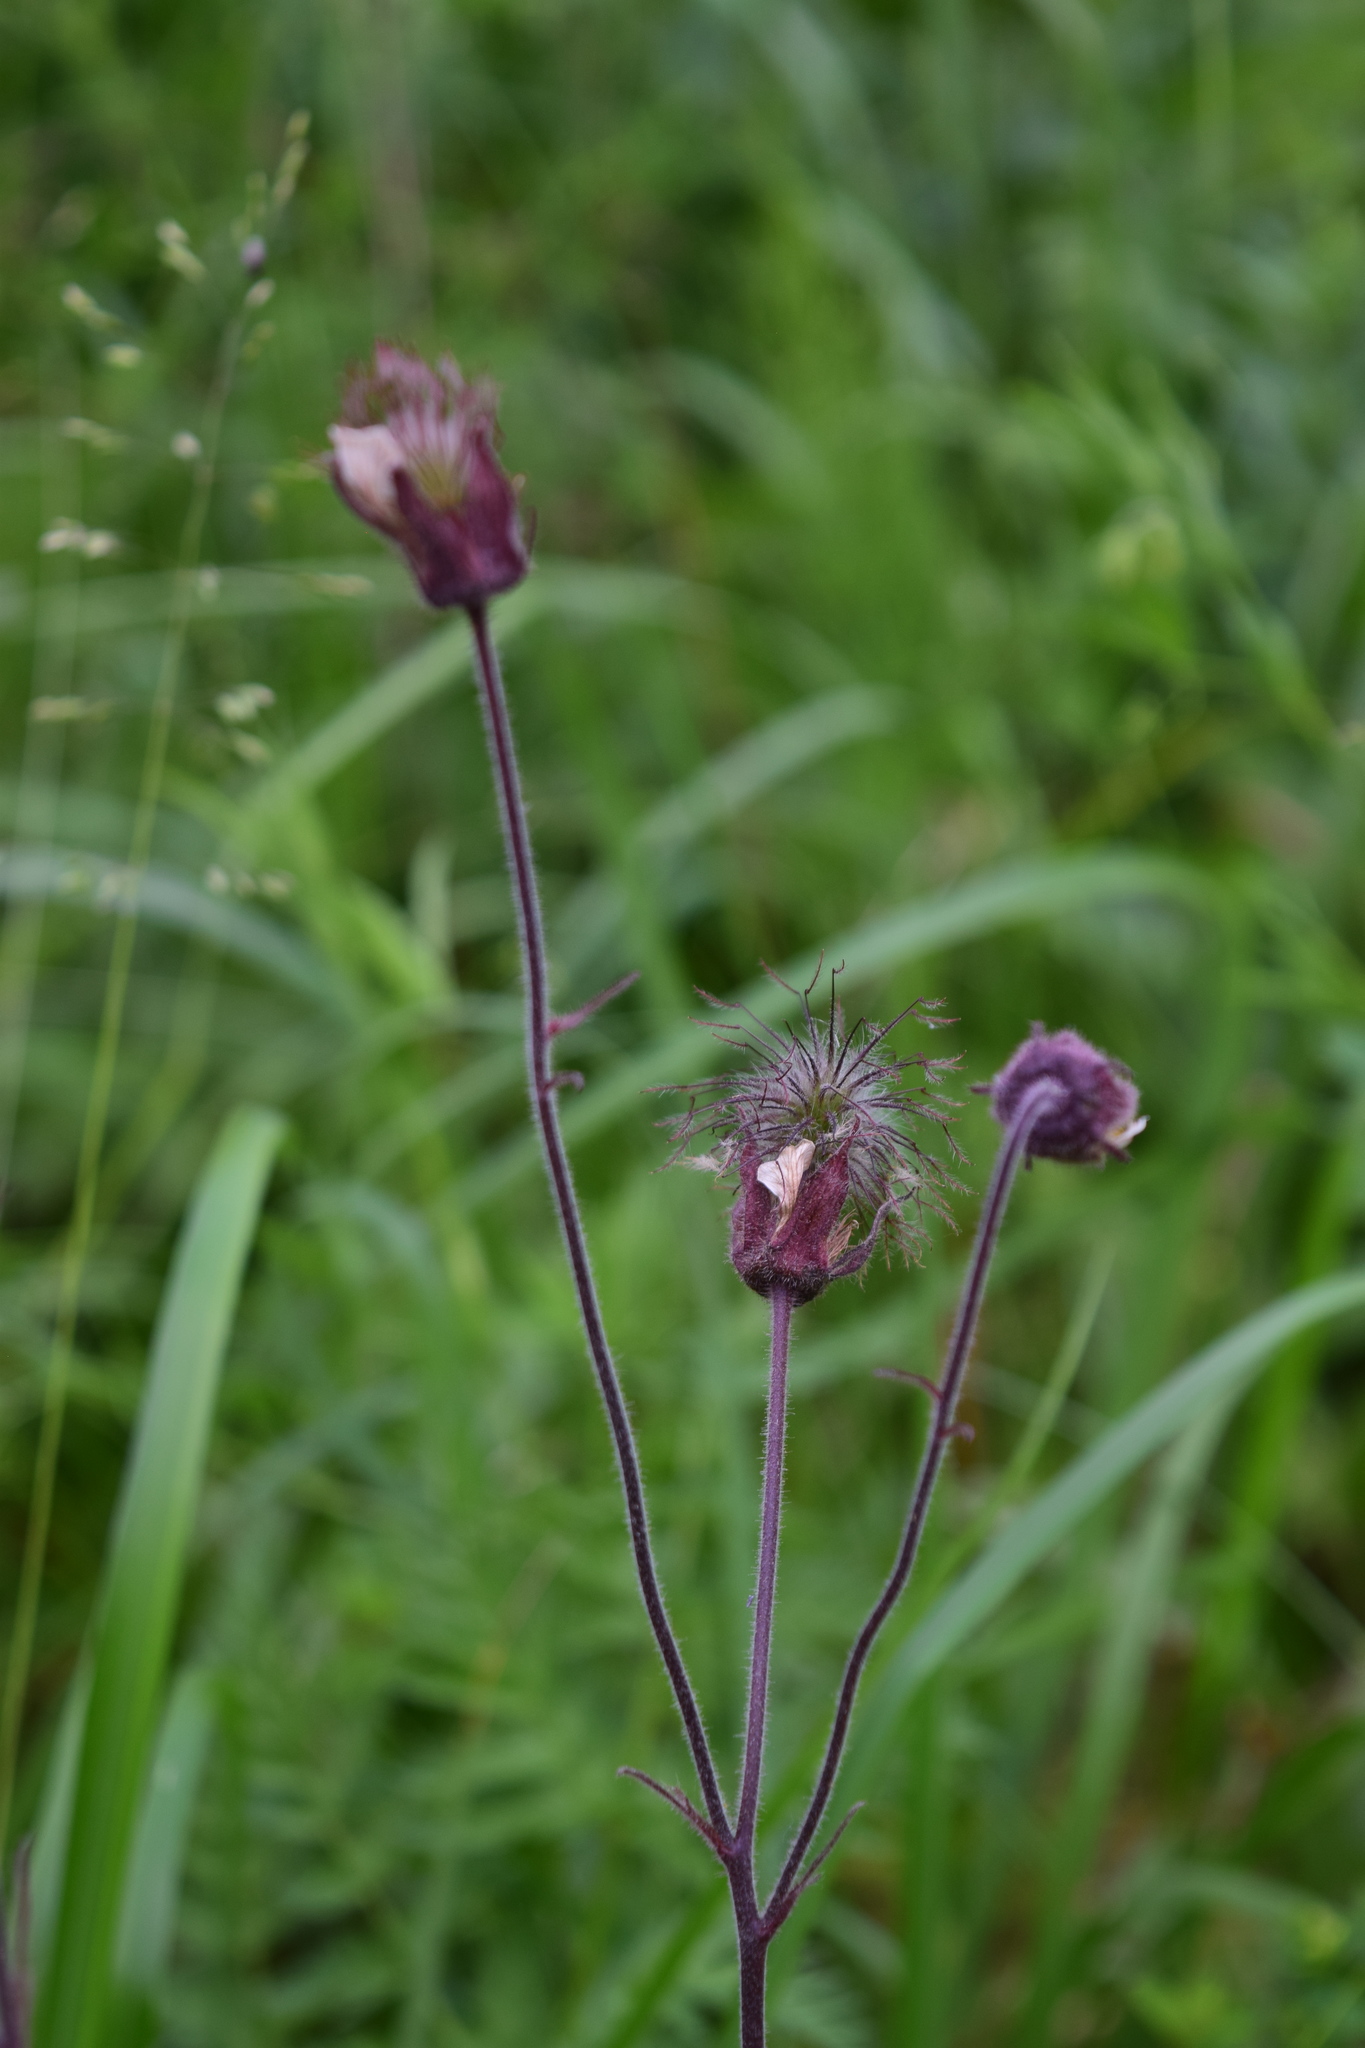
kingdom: Plantae
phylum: Tracheophyta
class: Magnoliopsida
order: Rosales
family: Rosaceae
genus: Geum
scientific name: Geum rivale
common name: Water avens
